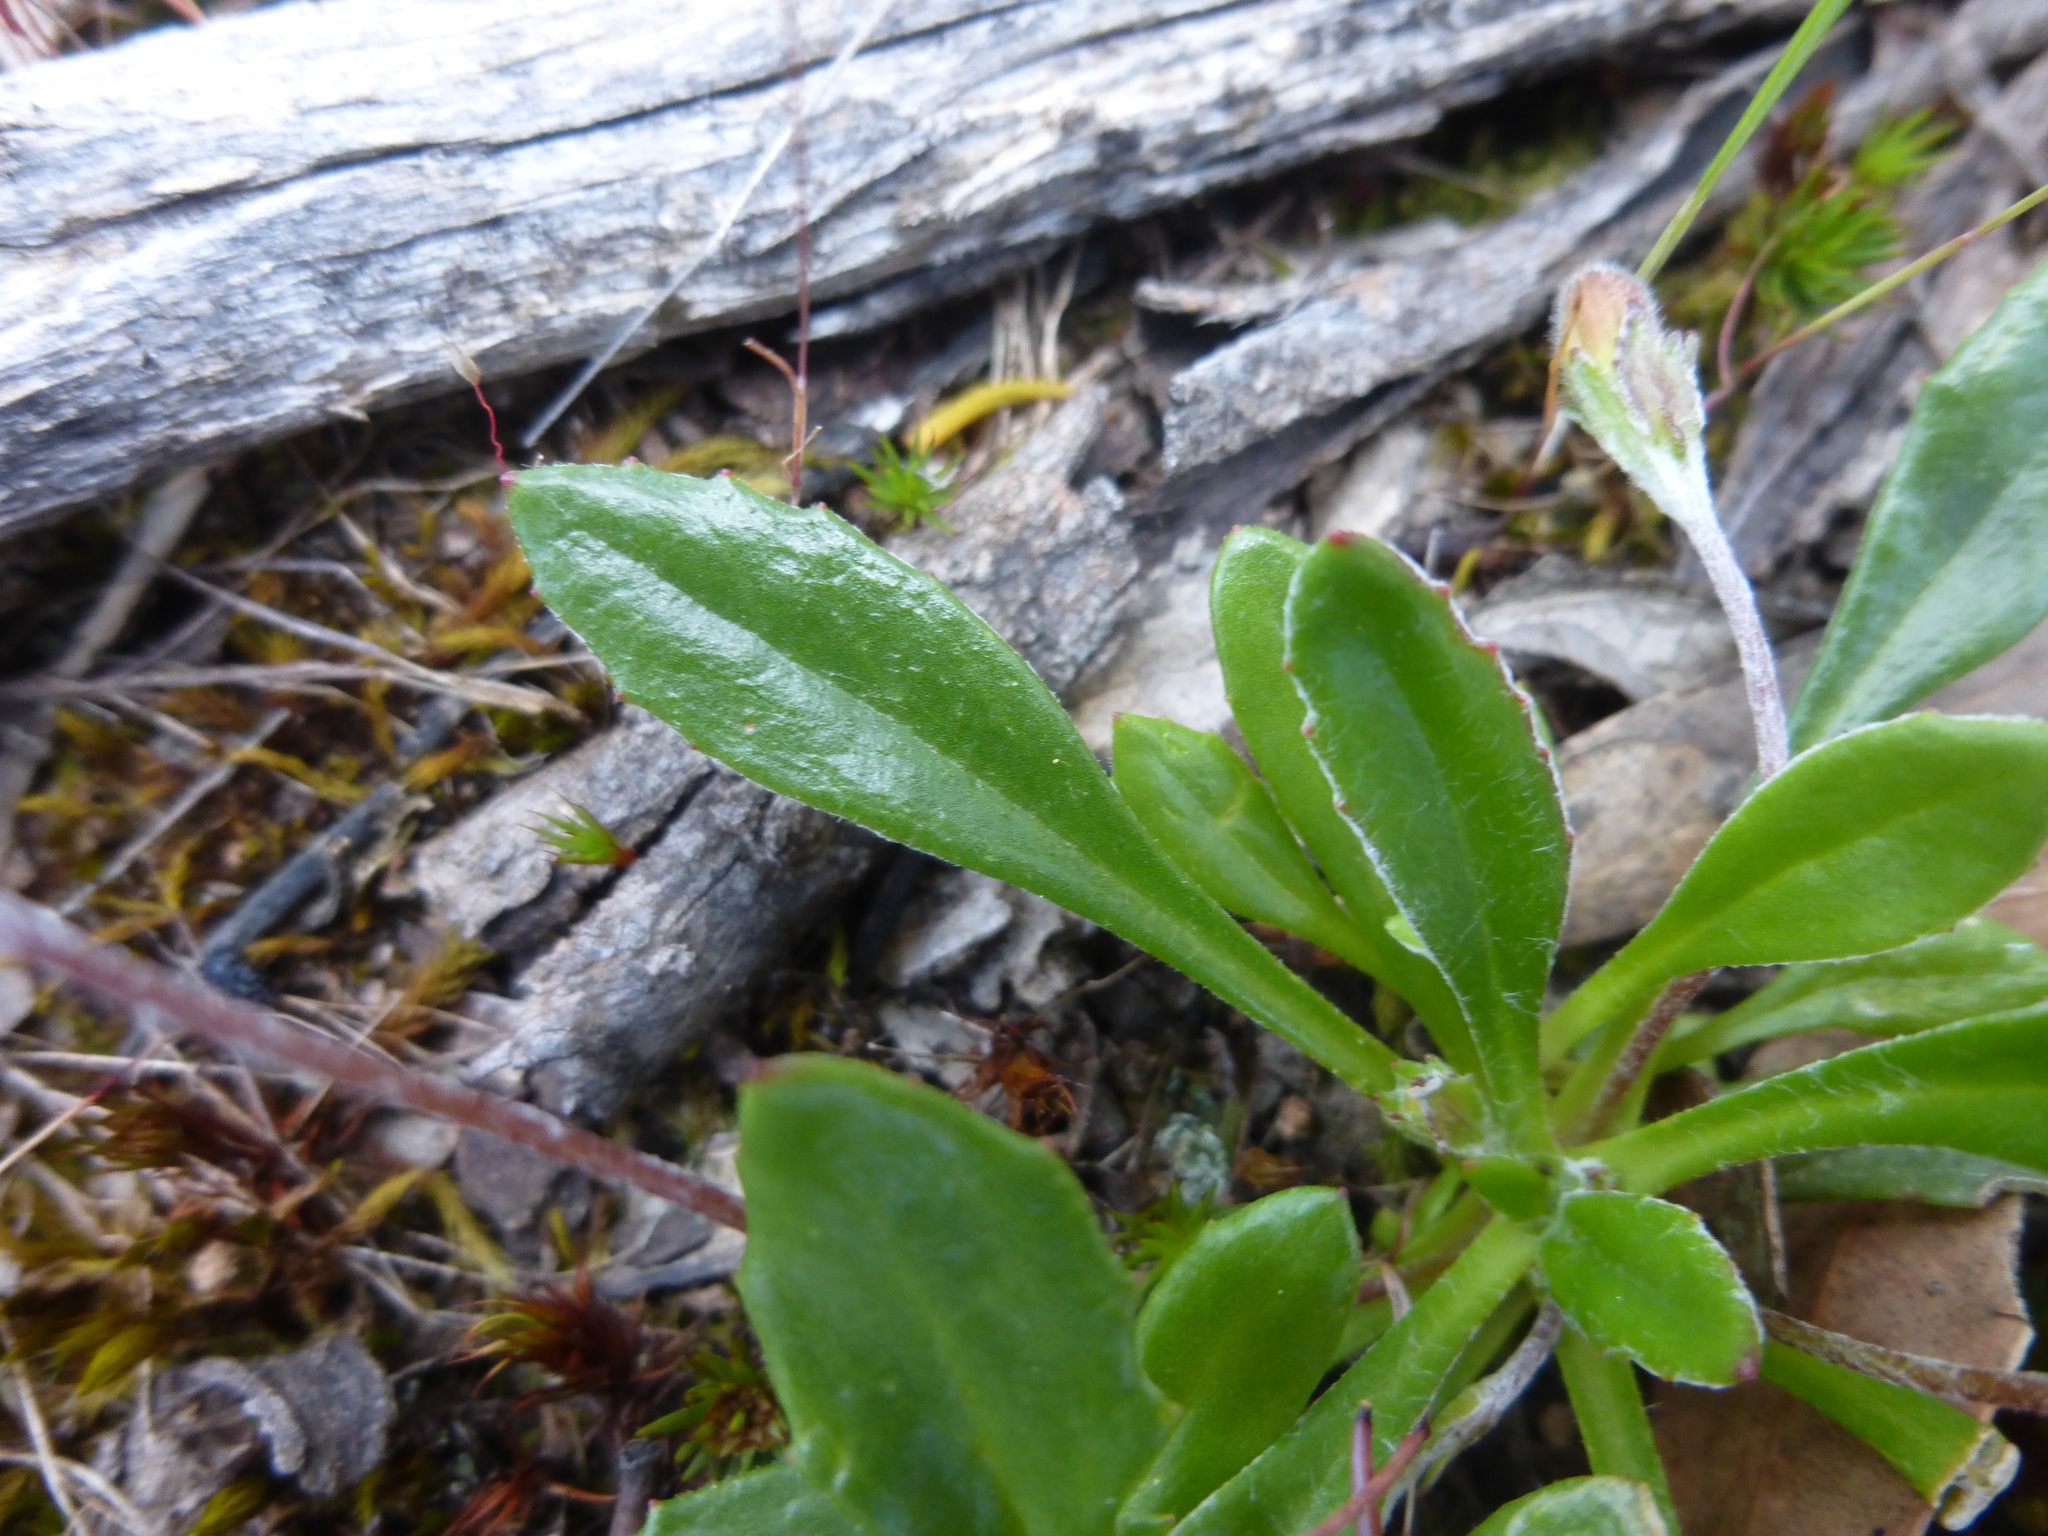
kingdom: Plantae
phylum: Tracheophyta
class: Magnoliopsida
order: Asterales
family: Goodeniaceae
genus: Goodenia
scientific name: Goodenia blackiana
